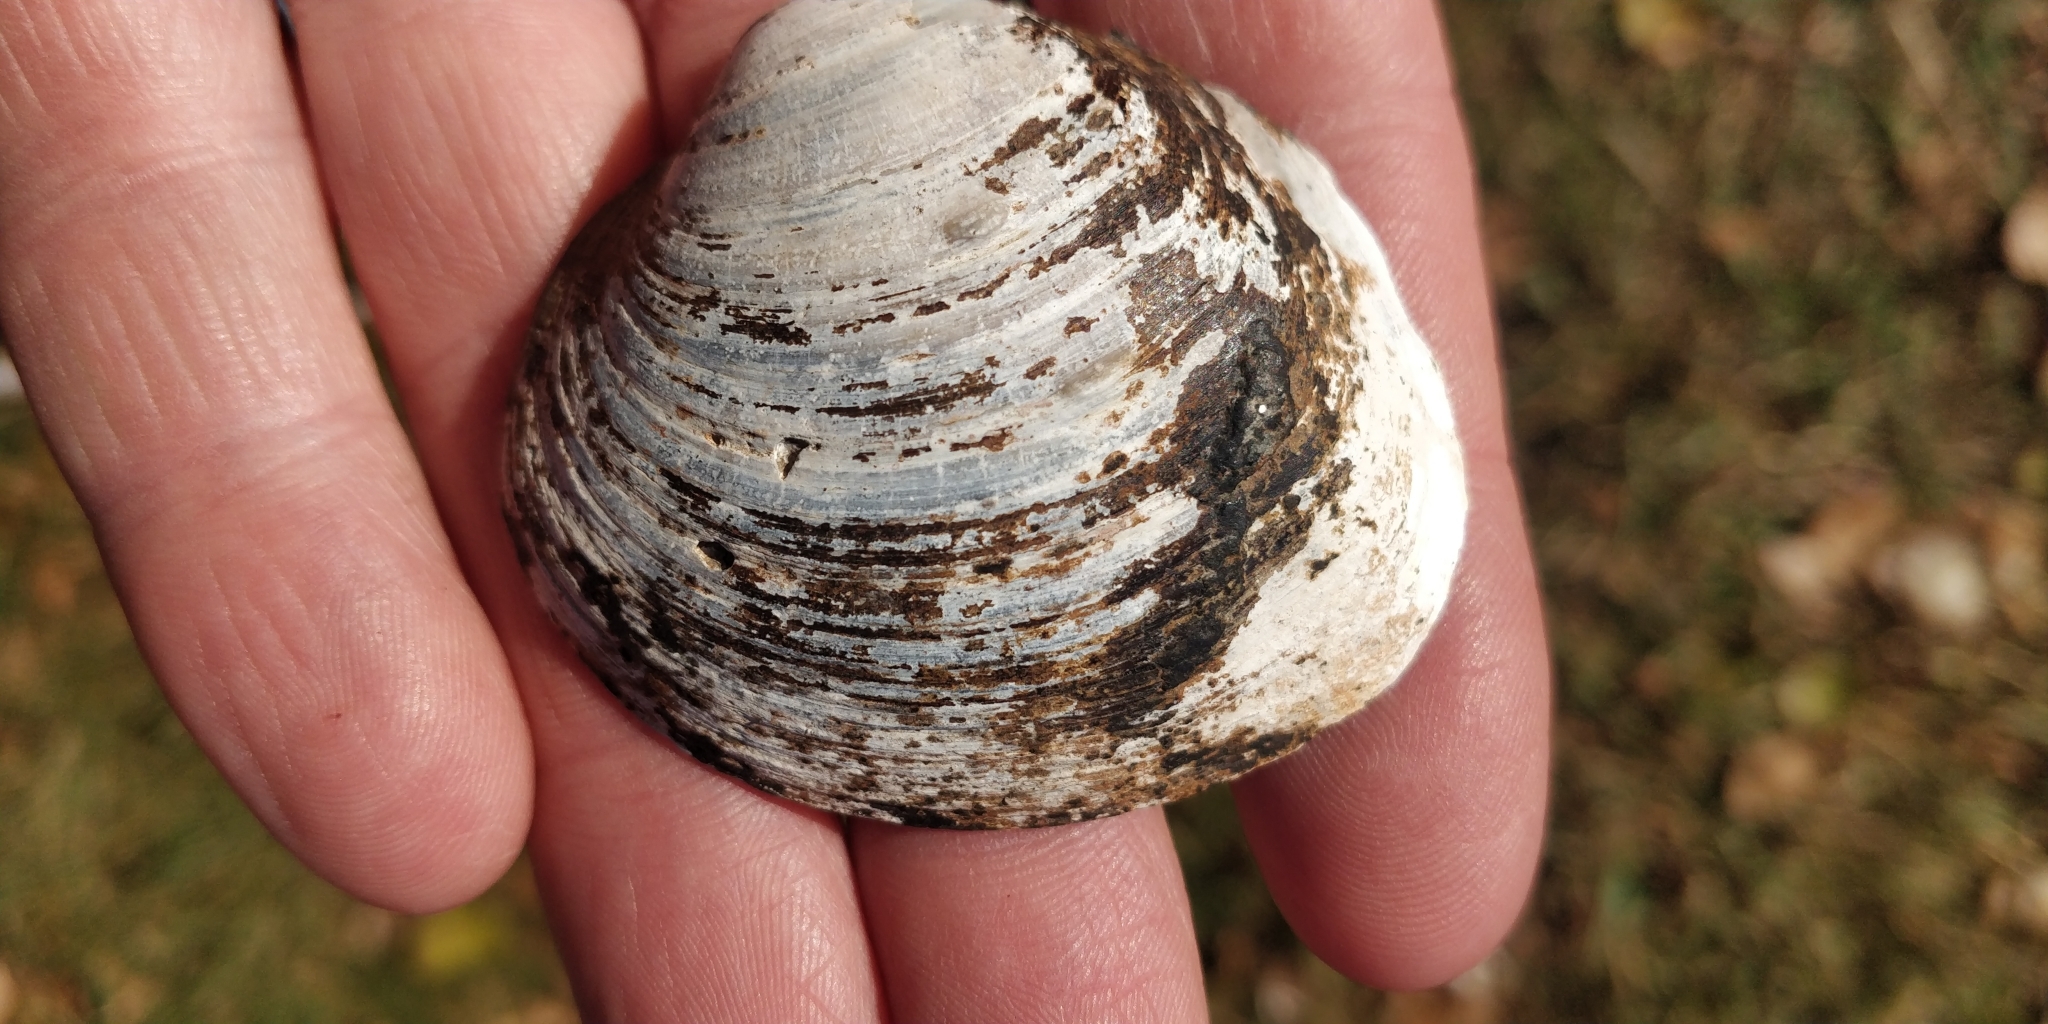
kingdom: Animalia
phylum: Mollusca
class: Bivalvia
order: Unionida
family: Unionidae
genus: Cyclonaias
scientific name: Cyclonaias pustulosa
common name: Pimpleback
